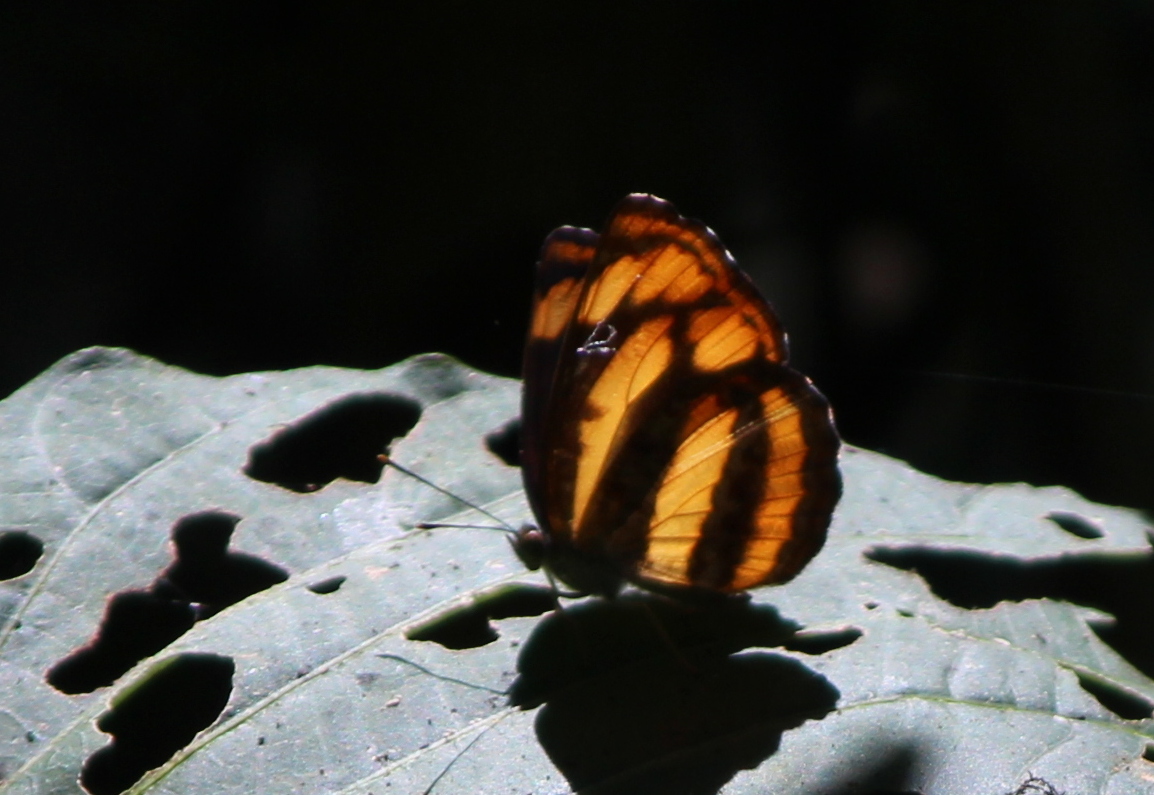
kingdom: Animalia
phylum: Arthropoda
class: Insecta
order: Lepidoptera
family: Nymphalidae
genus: Pantoporia
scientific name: Pantoporia hordonia
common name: Common lascar
